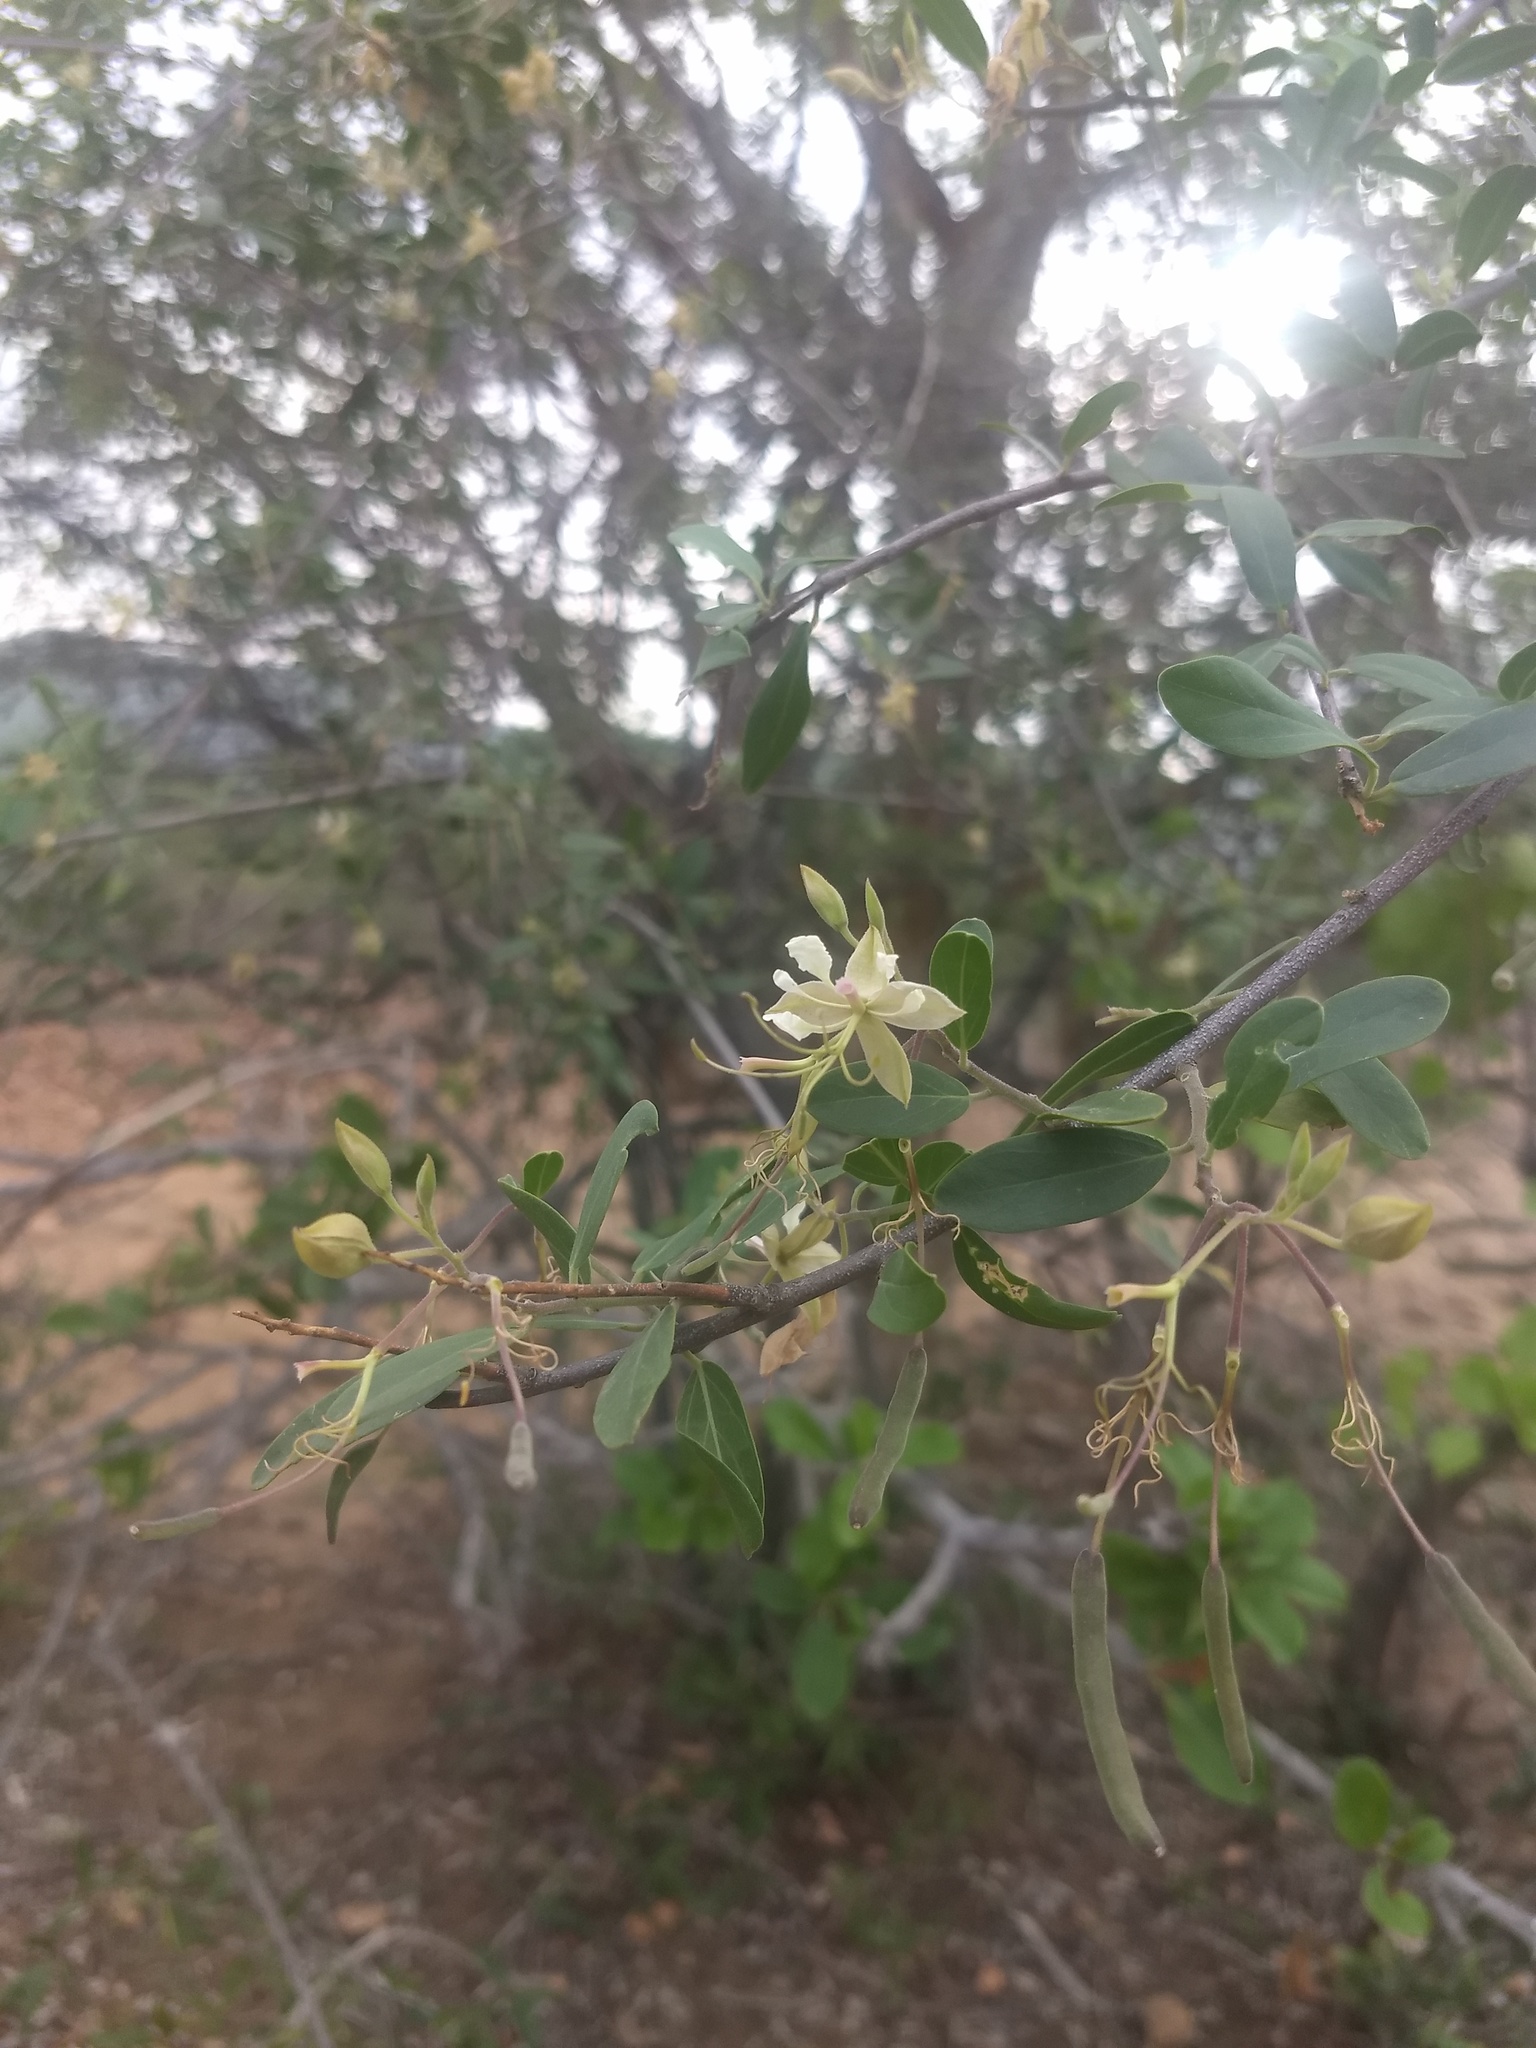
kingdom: Plantae
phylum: Tracheophyta
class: Magnoliopsida
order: Brassicales
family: Capparaceae
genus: Cadaba
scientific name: Cadaba fruticosa
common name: Indian cadaba
